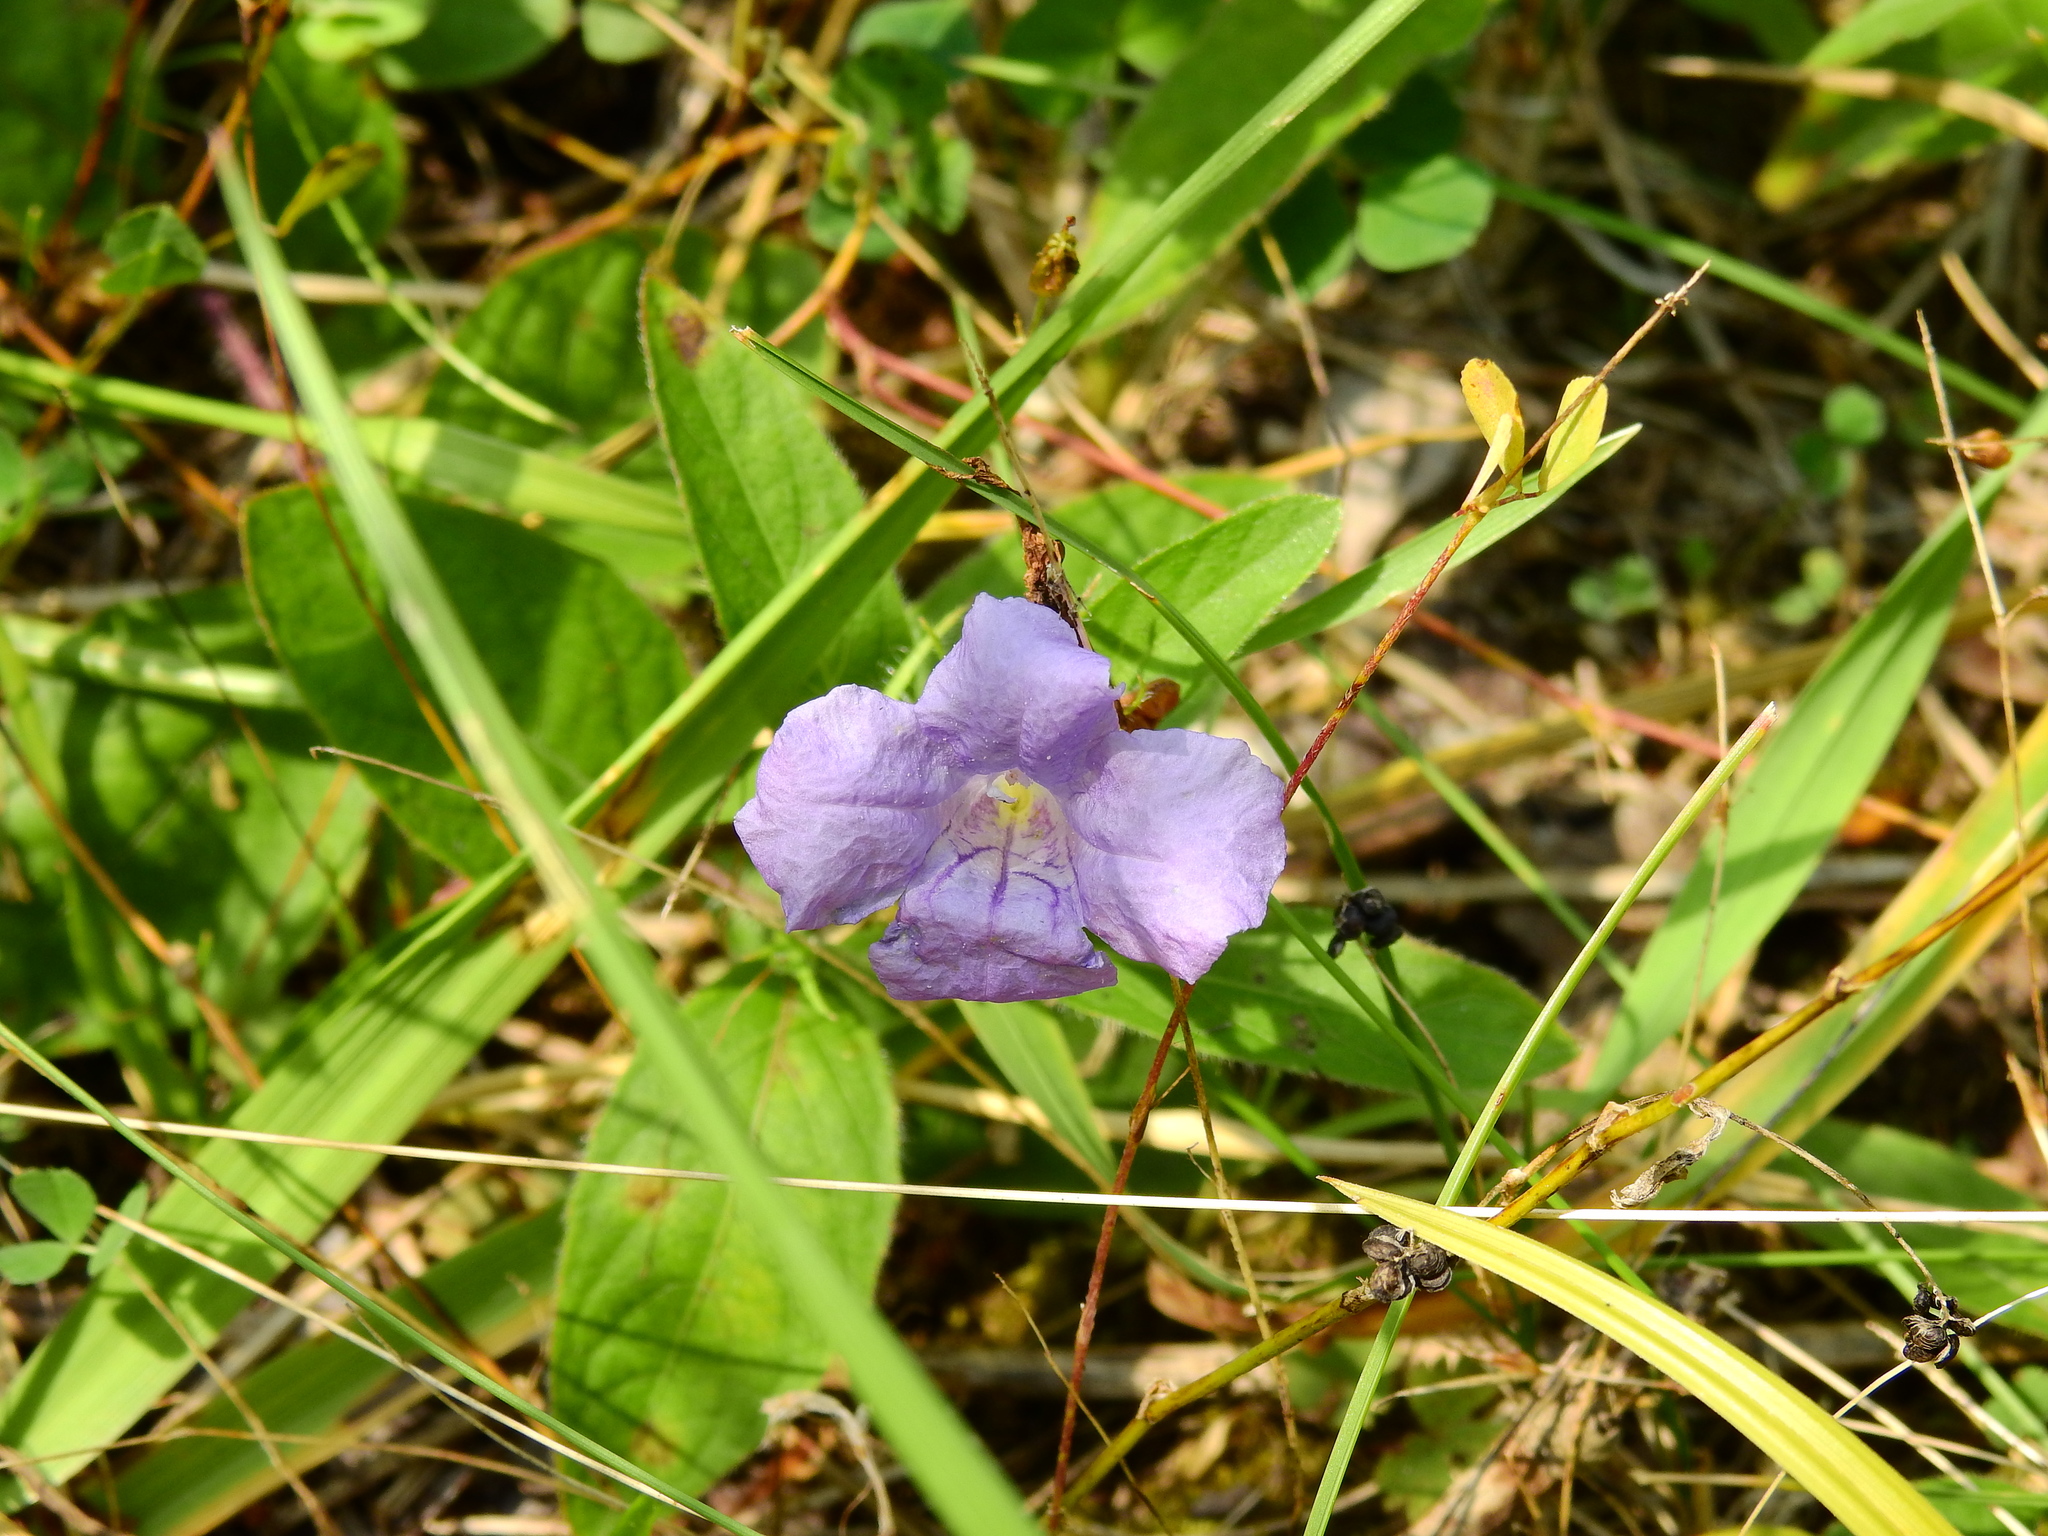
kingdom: Plantae
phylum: Tracheophyta
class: Magnoliopsida
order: Lamiales
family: Acanthaceae
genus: Ruellia
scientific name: Ruellia humilis
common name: Fringe-leaf ruellia
